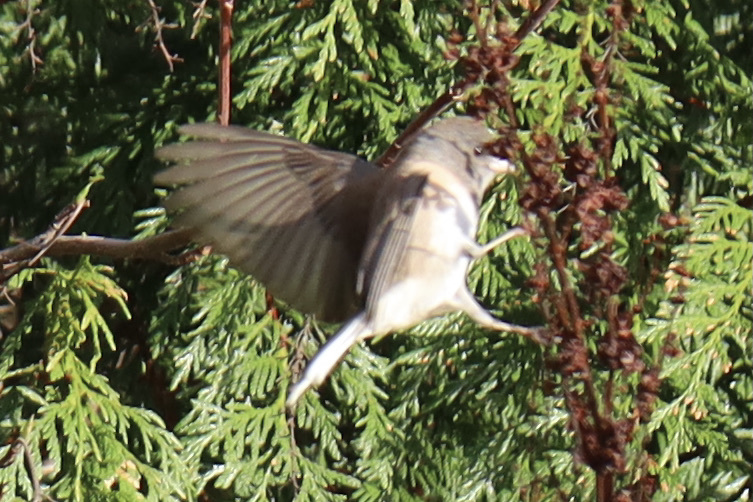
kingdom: Animalia
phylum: Chordata
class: Aves
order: Passeriformes
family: Passerellidae
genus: Junco
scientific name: Junco hyemalis
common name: Dark-eyed junco
